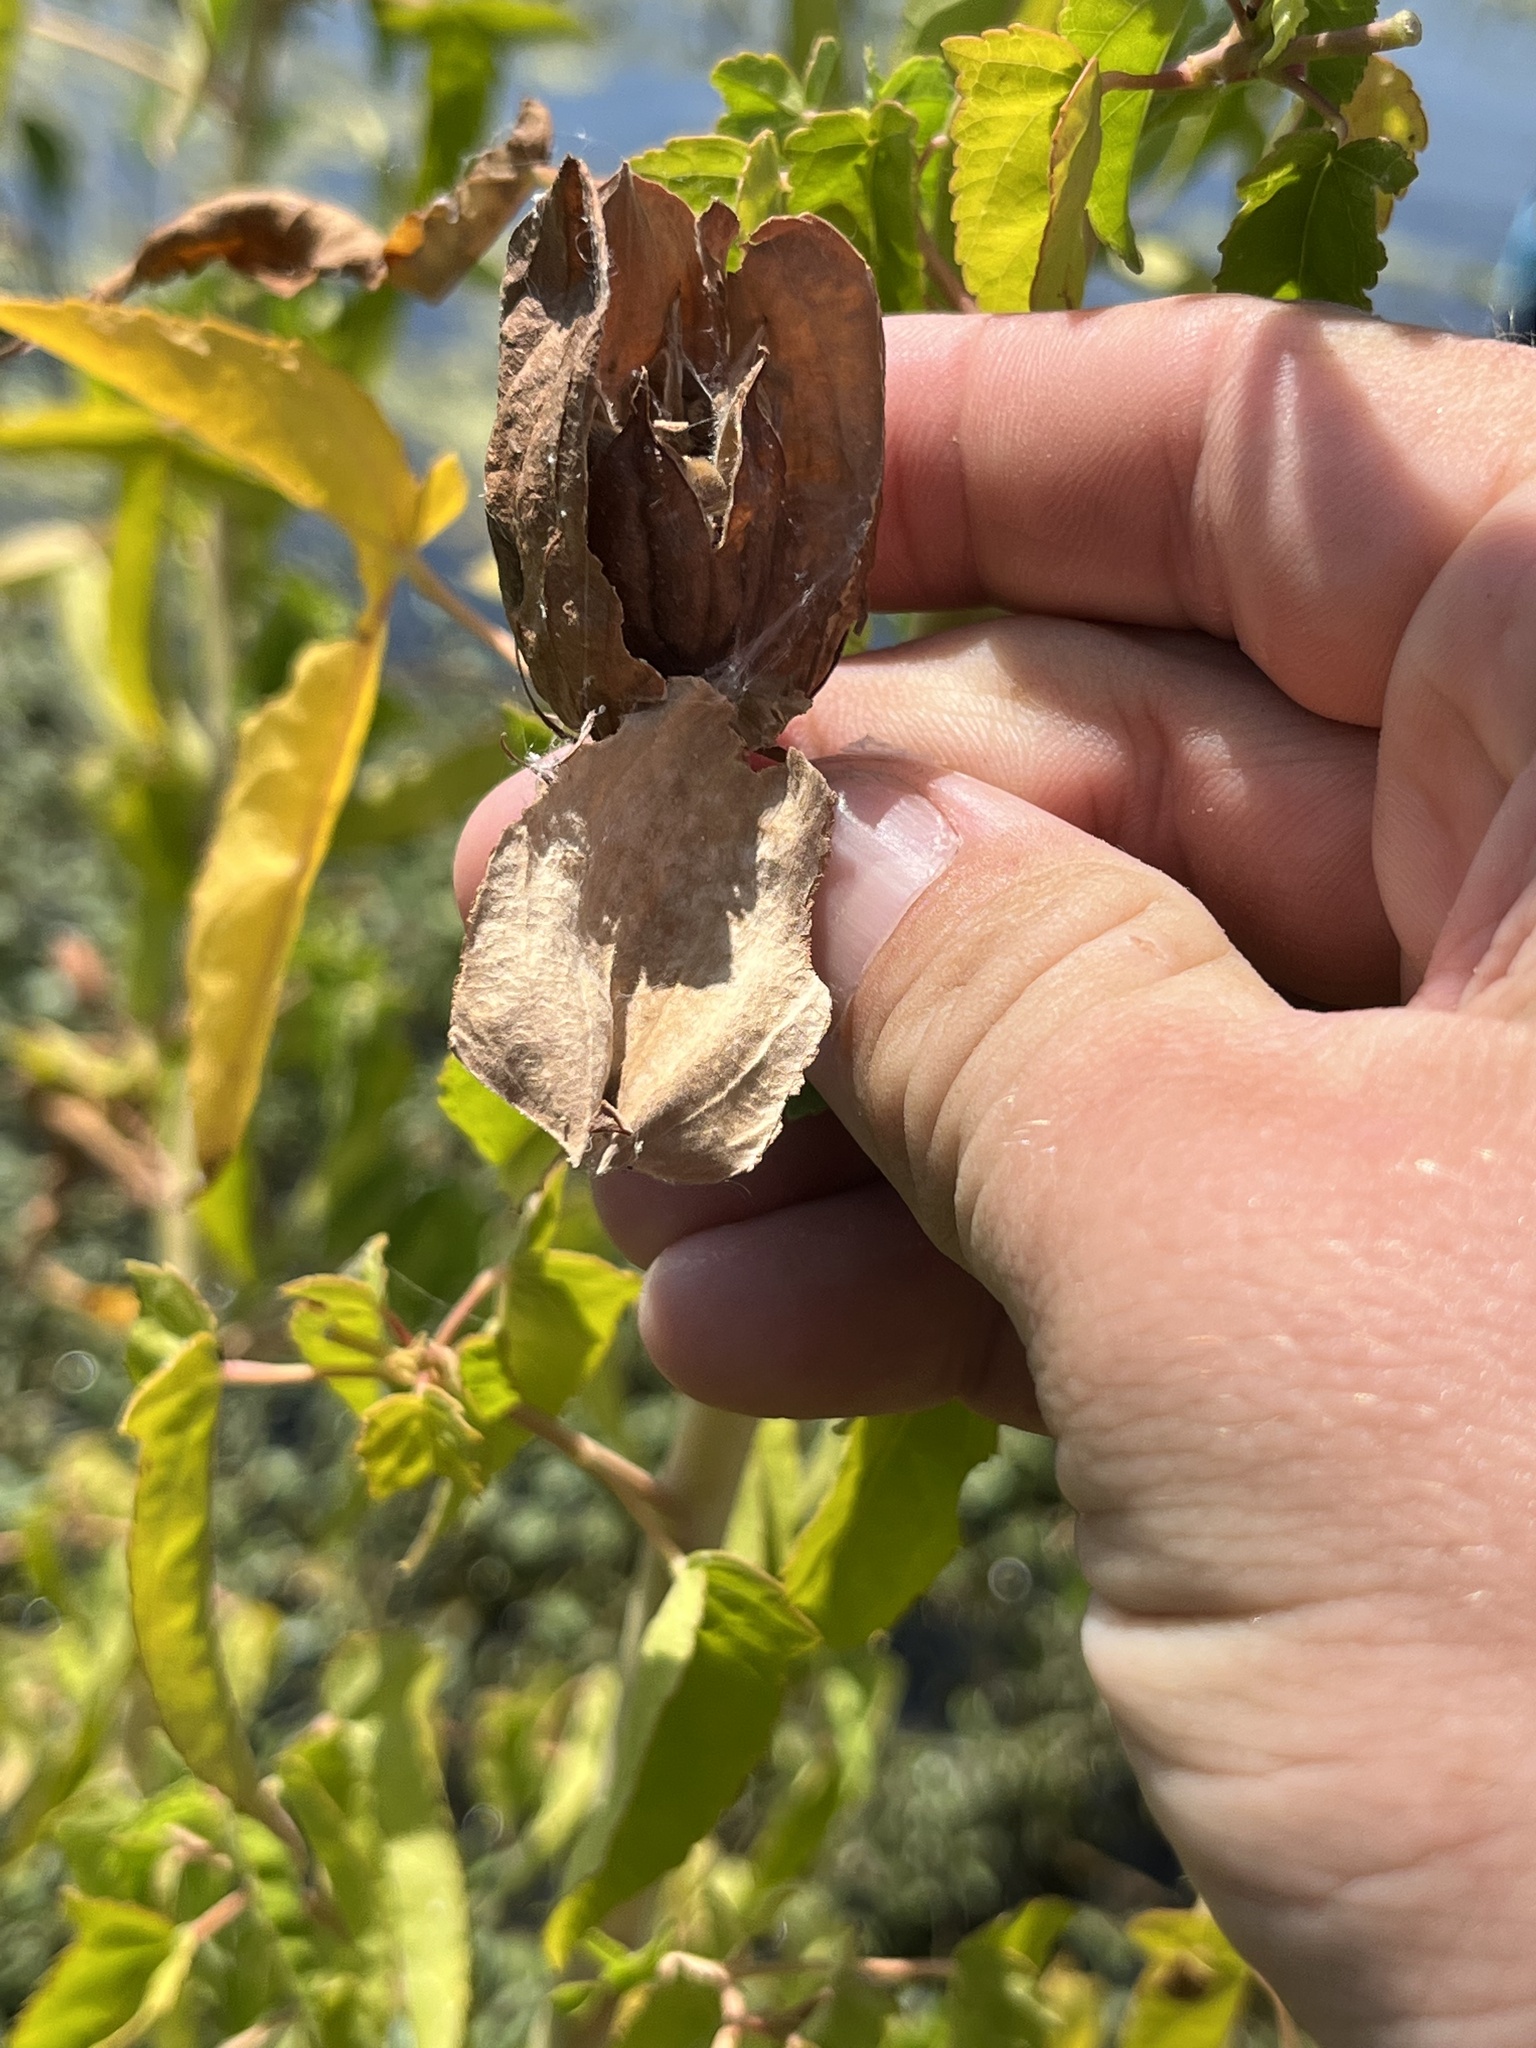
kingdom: Plantae
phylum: Tracheophyta
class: Magnoliopsida
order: Malvales
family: Malvaceae
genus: Hibiscus
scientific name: Hibiscus laevis
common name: Scarlet rose-mallow
